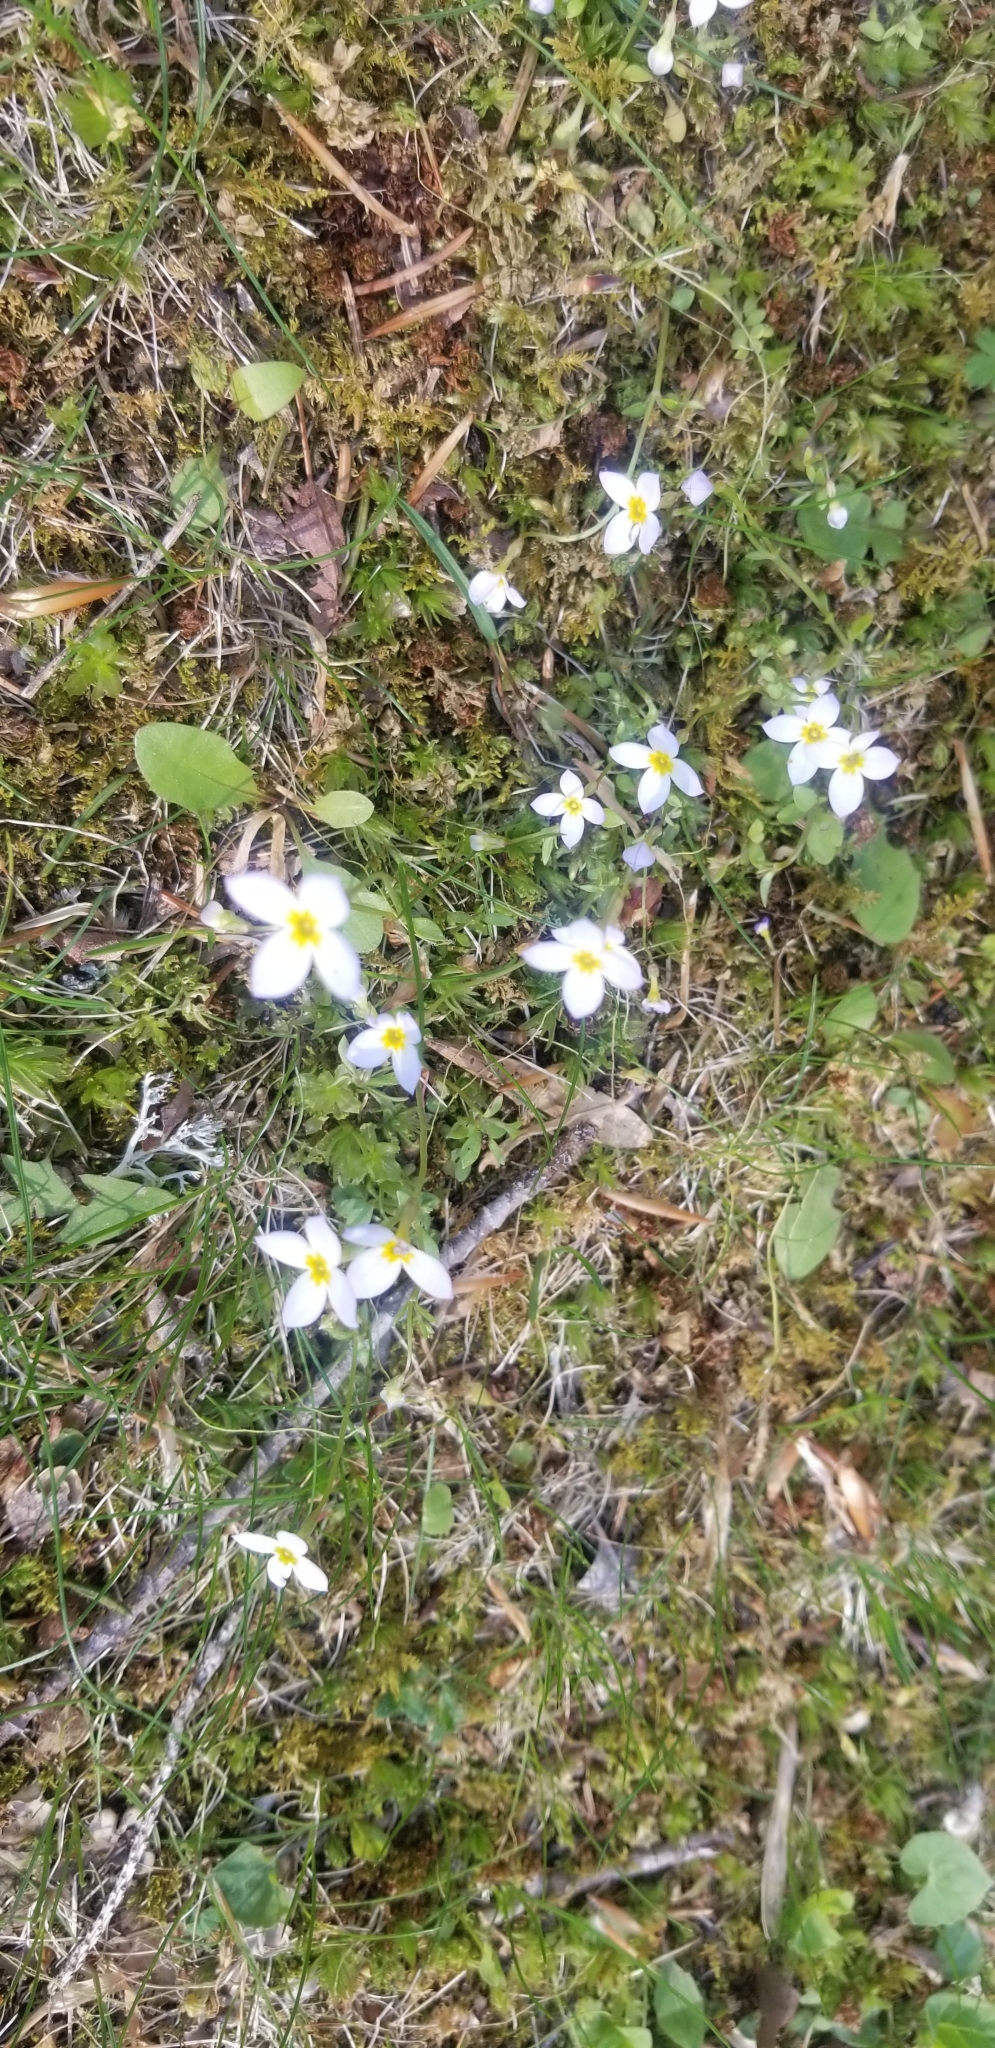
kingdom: Plantae
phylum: Tracheophyta
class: Magnoliopsida
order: Gentianales
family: Rubiaceae
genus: Houstonia
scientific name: Houstonia caerulea
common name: Bluets
